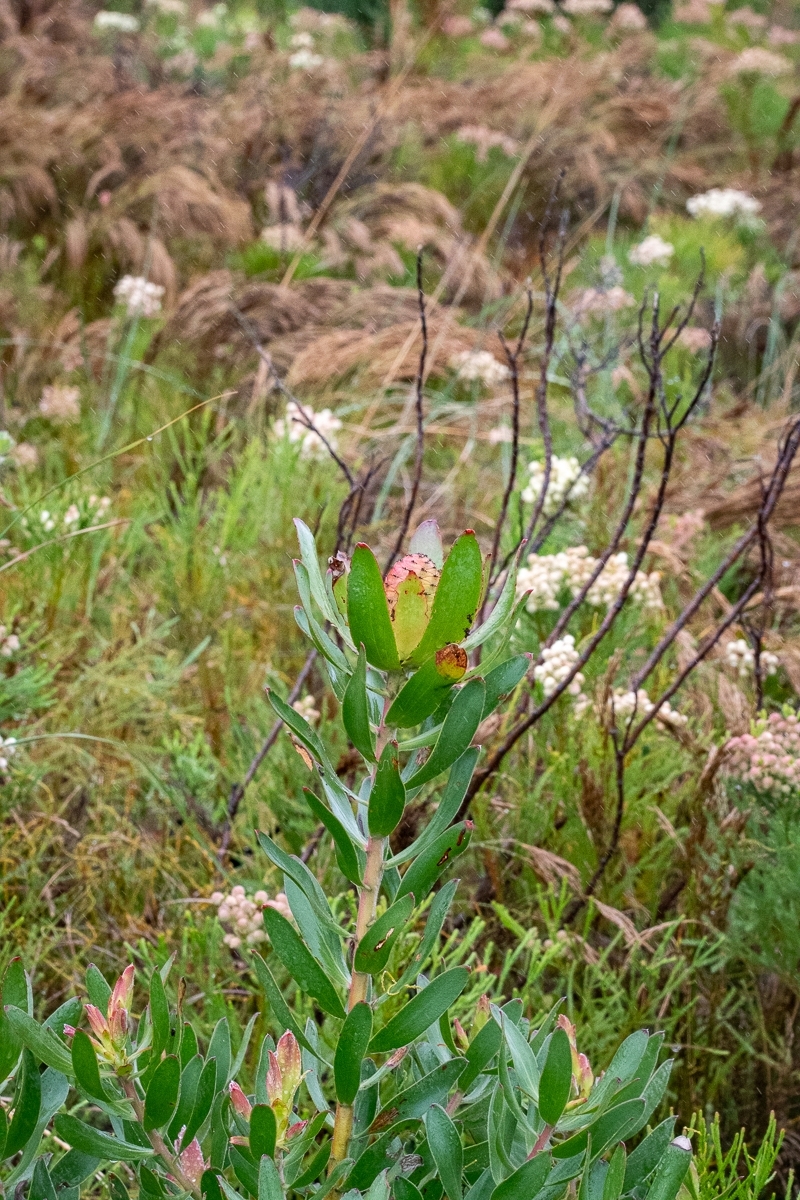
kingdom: Plantae
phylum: Tracheophyta
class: Magnoliopsida
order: Proteales
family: Proteaceae
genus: Leucadendron
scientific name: Leucadendron gandogeri
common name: Broad-leaf conebush
